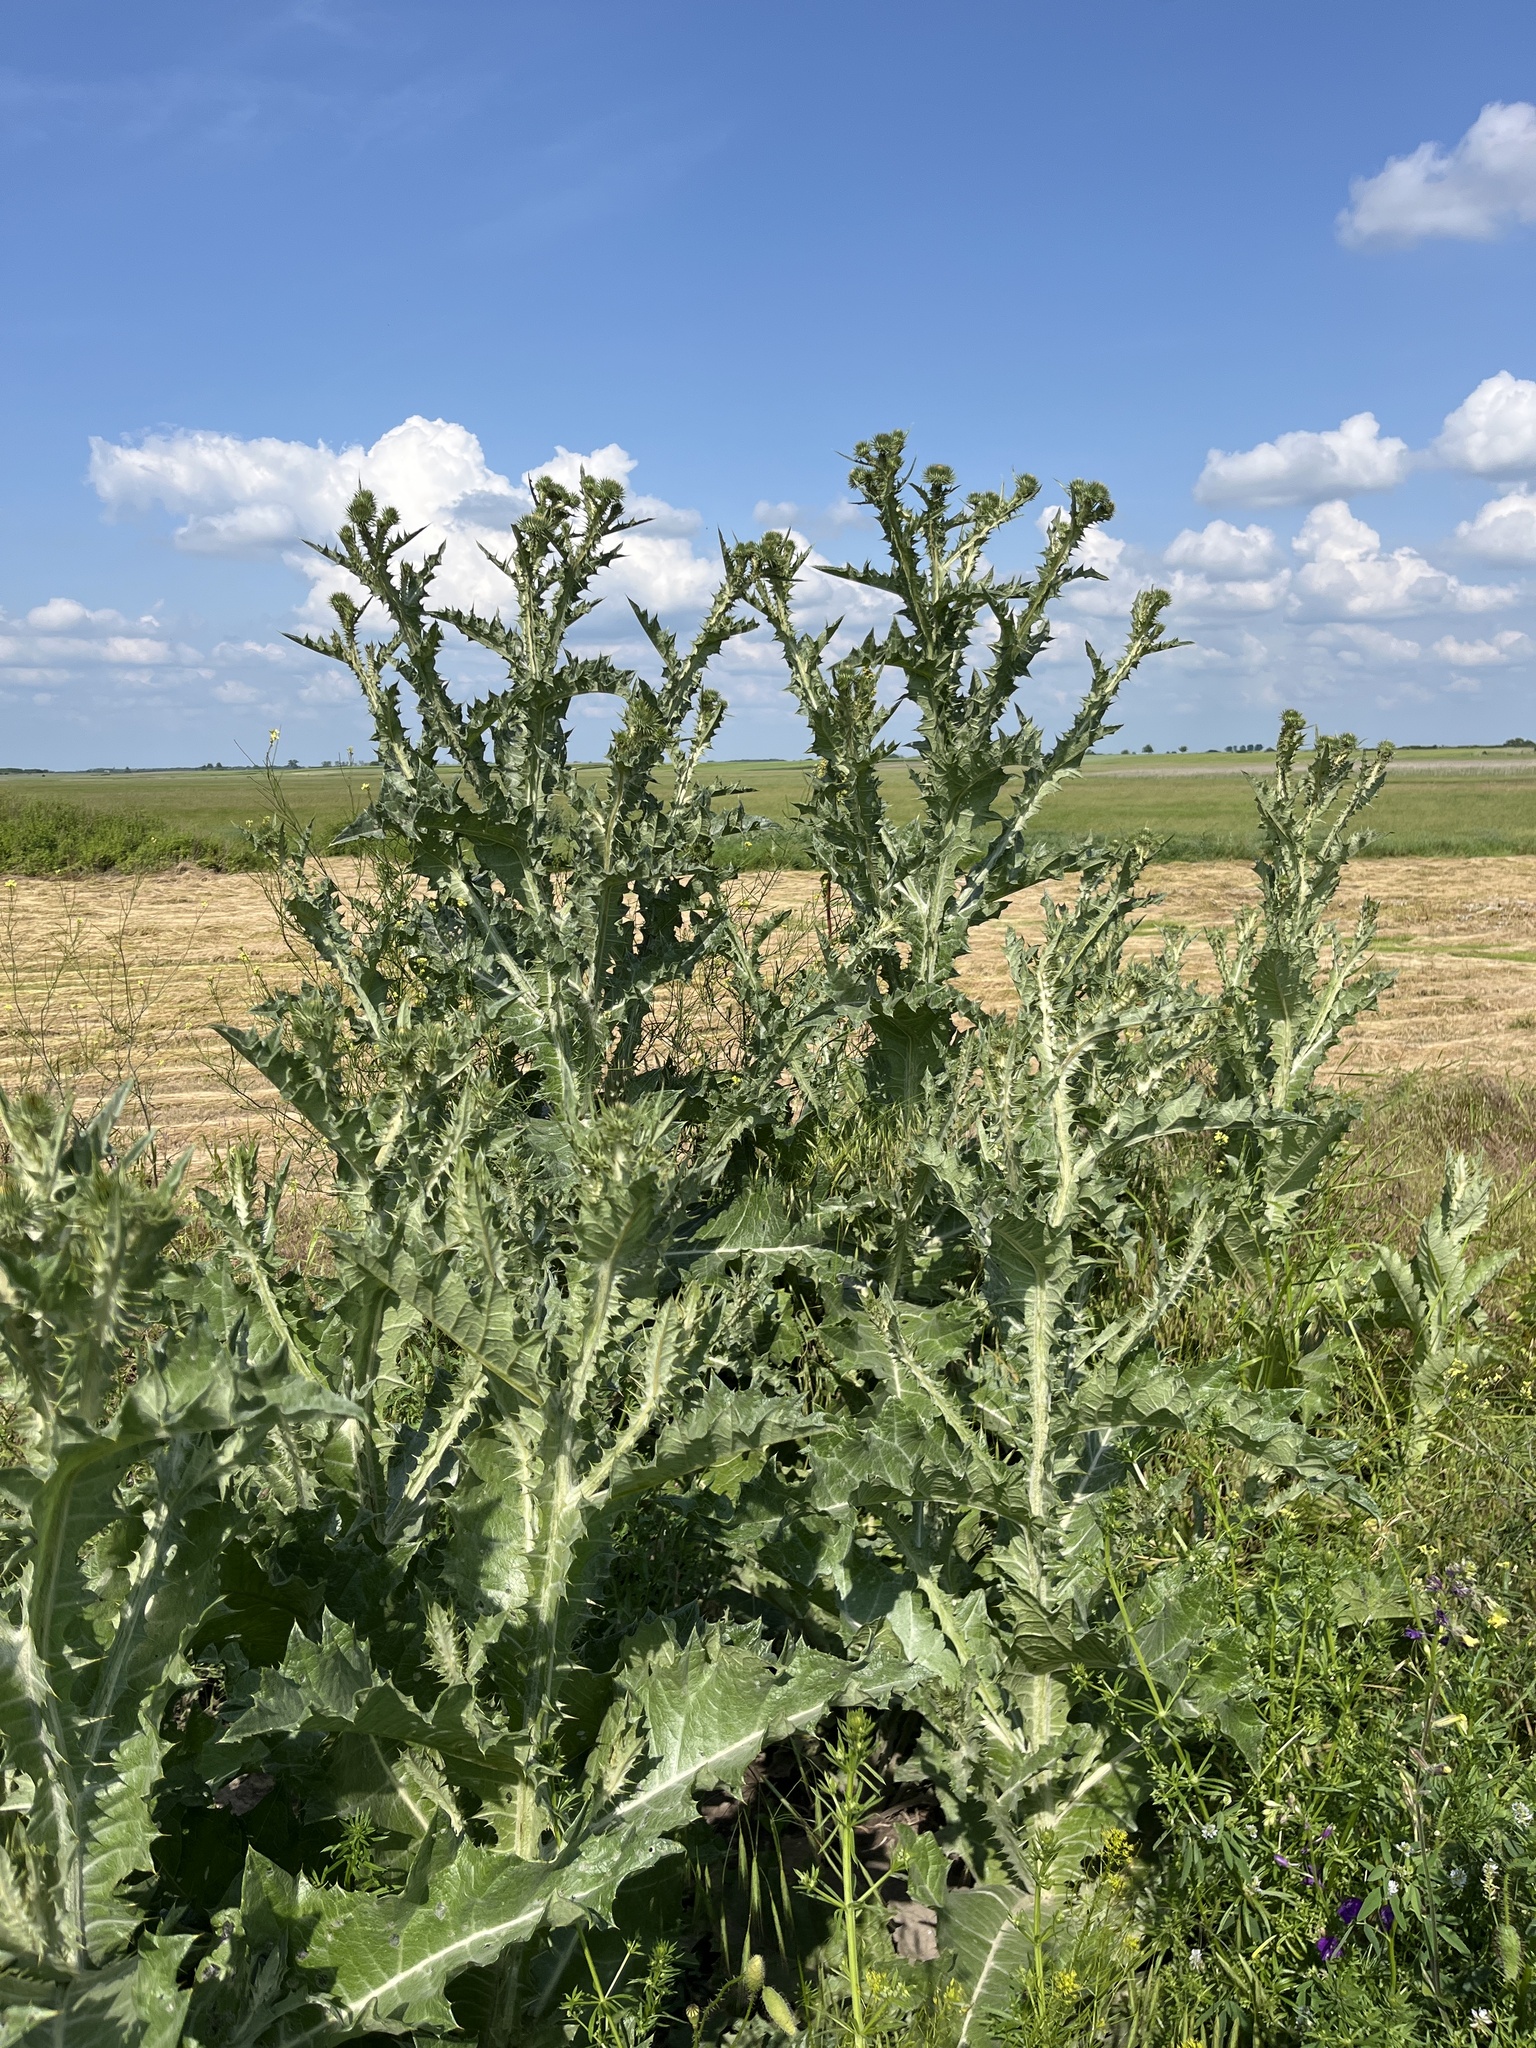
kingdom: Plantae
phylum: Tracheophyta
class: Magnoliopsida
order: Asterales
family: Asteraceae
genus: Onopordum
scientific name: Onopordum acanthium
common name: Scotch thistle
